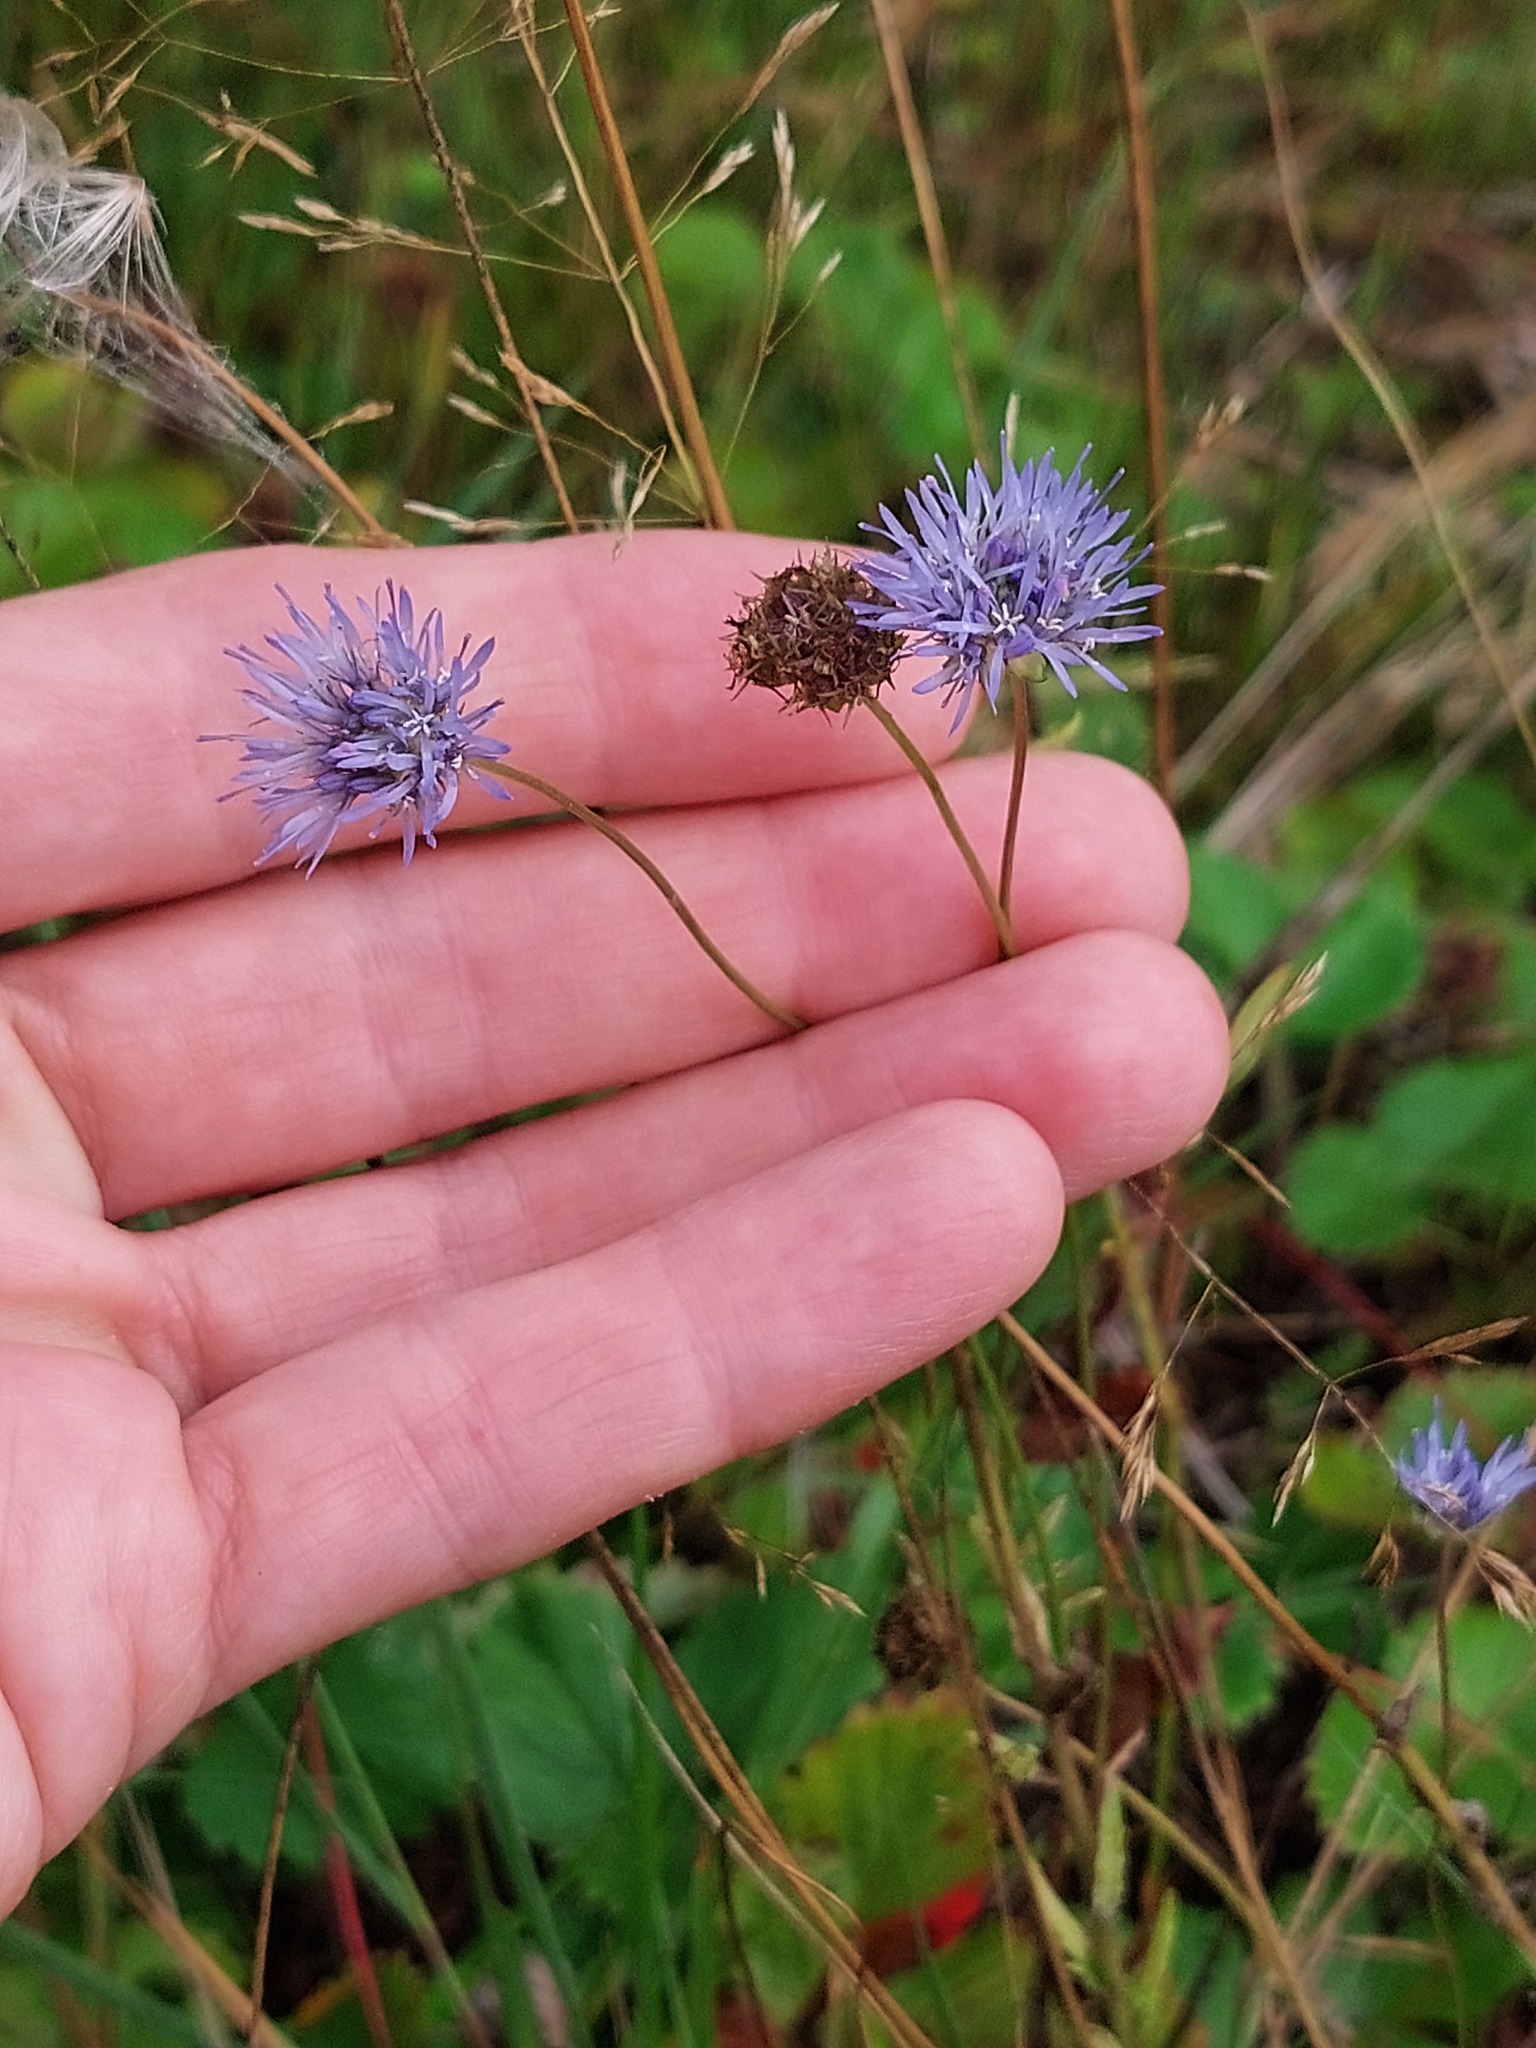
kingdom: Plantae
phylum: Tracheophyta
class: Magnoliopsida
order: Asterales
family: Campanulaceae
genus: Jasione
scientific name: Jasione montana
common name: Sheep's-bit
